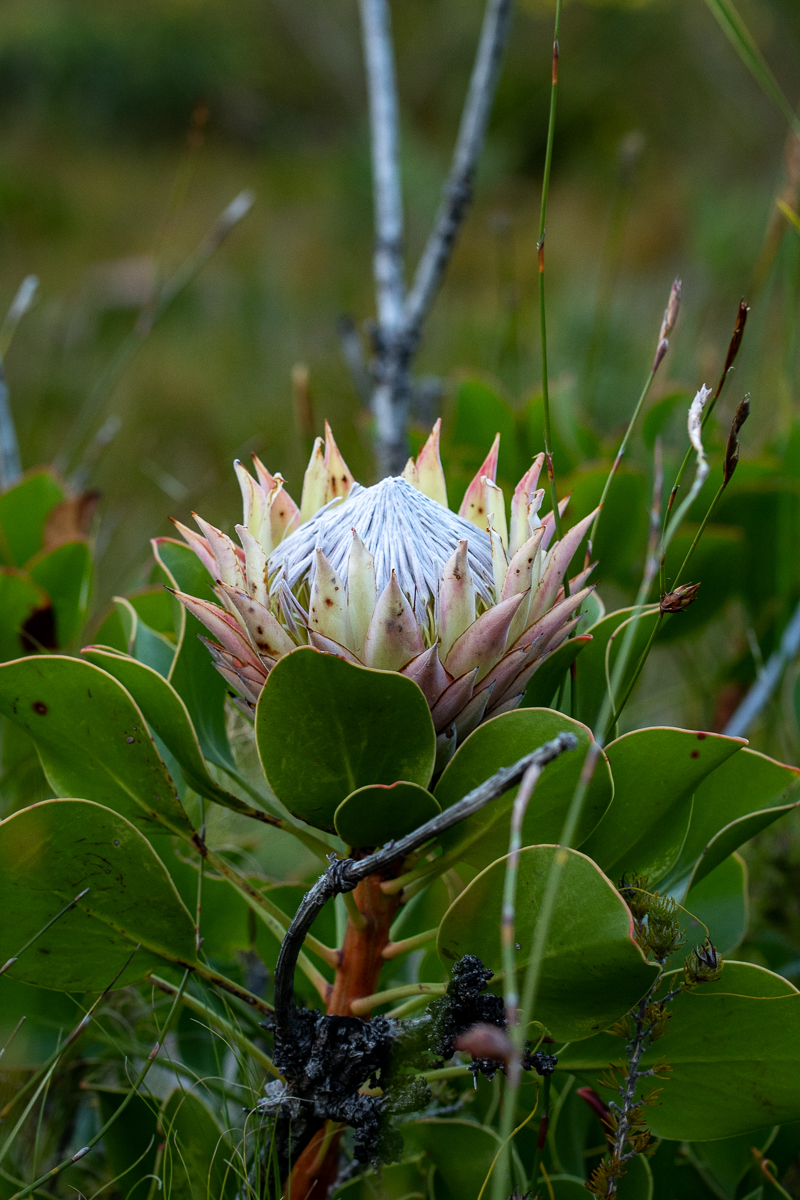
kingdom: Plantae
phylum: Tracheophyta
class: Magnoliopsida
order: Proteales
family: Proteaceae
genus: Protea
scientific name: Protea cynaroides
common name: King protea
